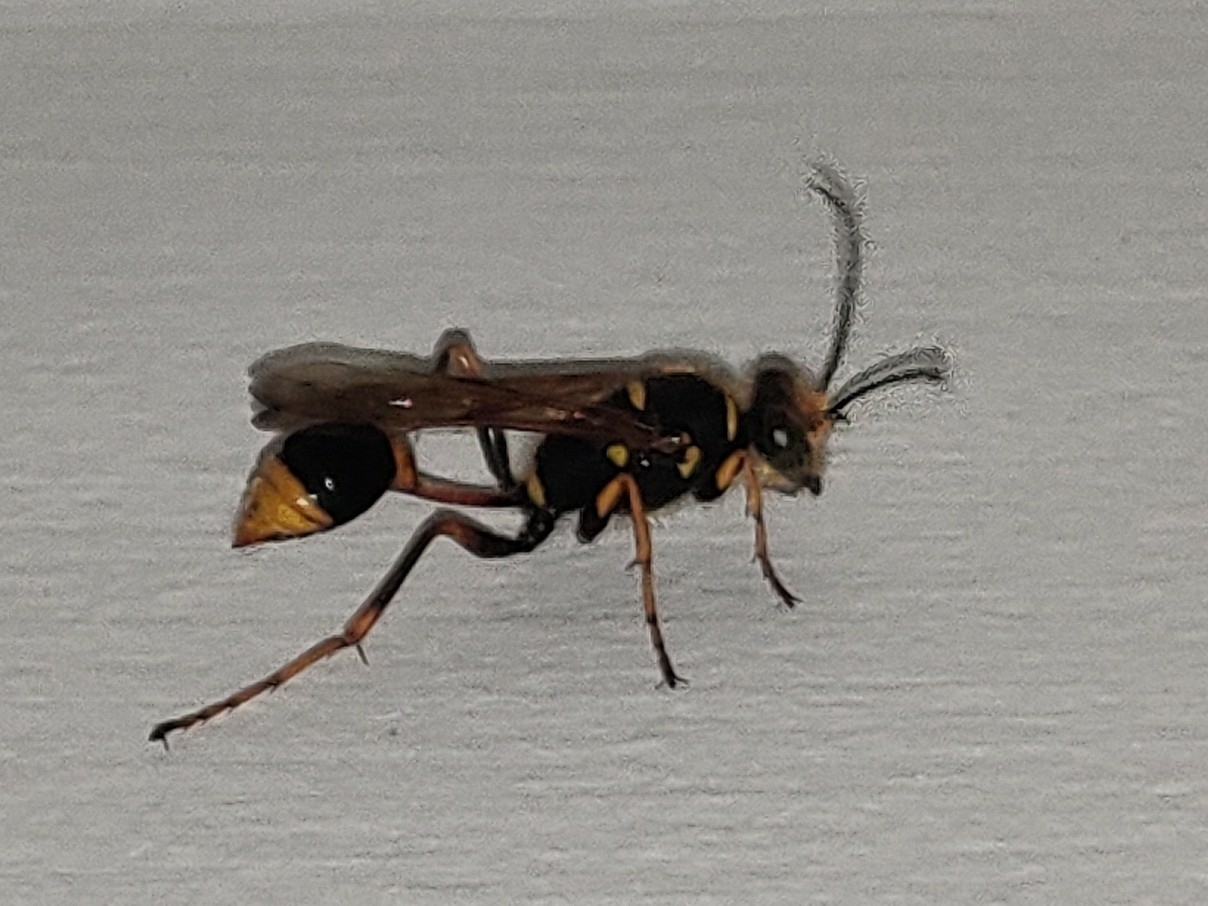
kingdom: Animalia
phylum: Arthropoda
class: Insecta
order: Hymenoptera
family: Sphecidae
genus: Sceliphron
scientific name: Sceliphron formosum
